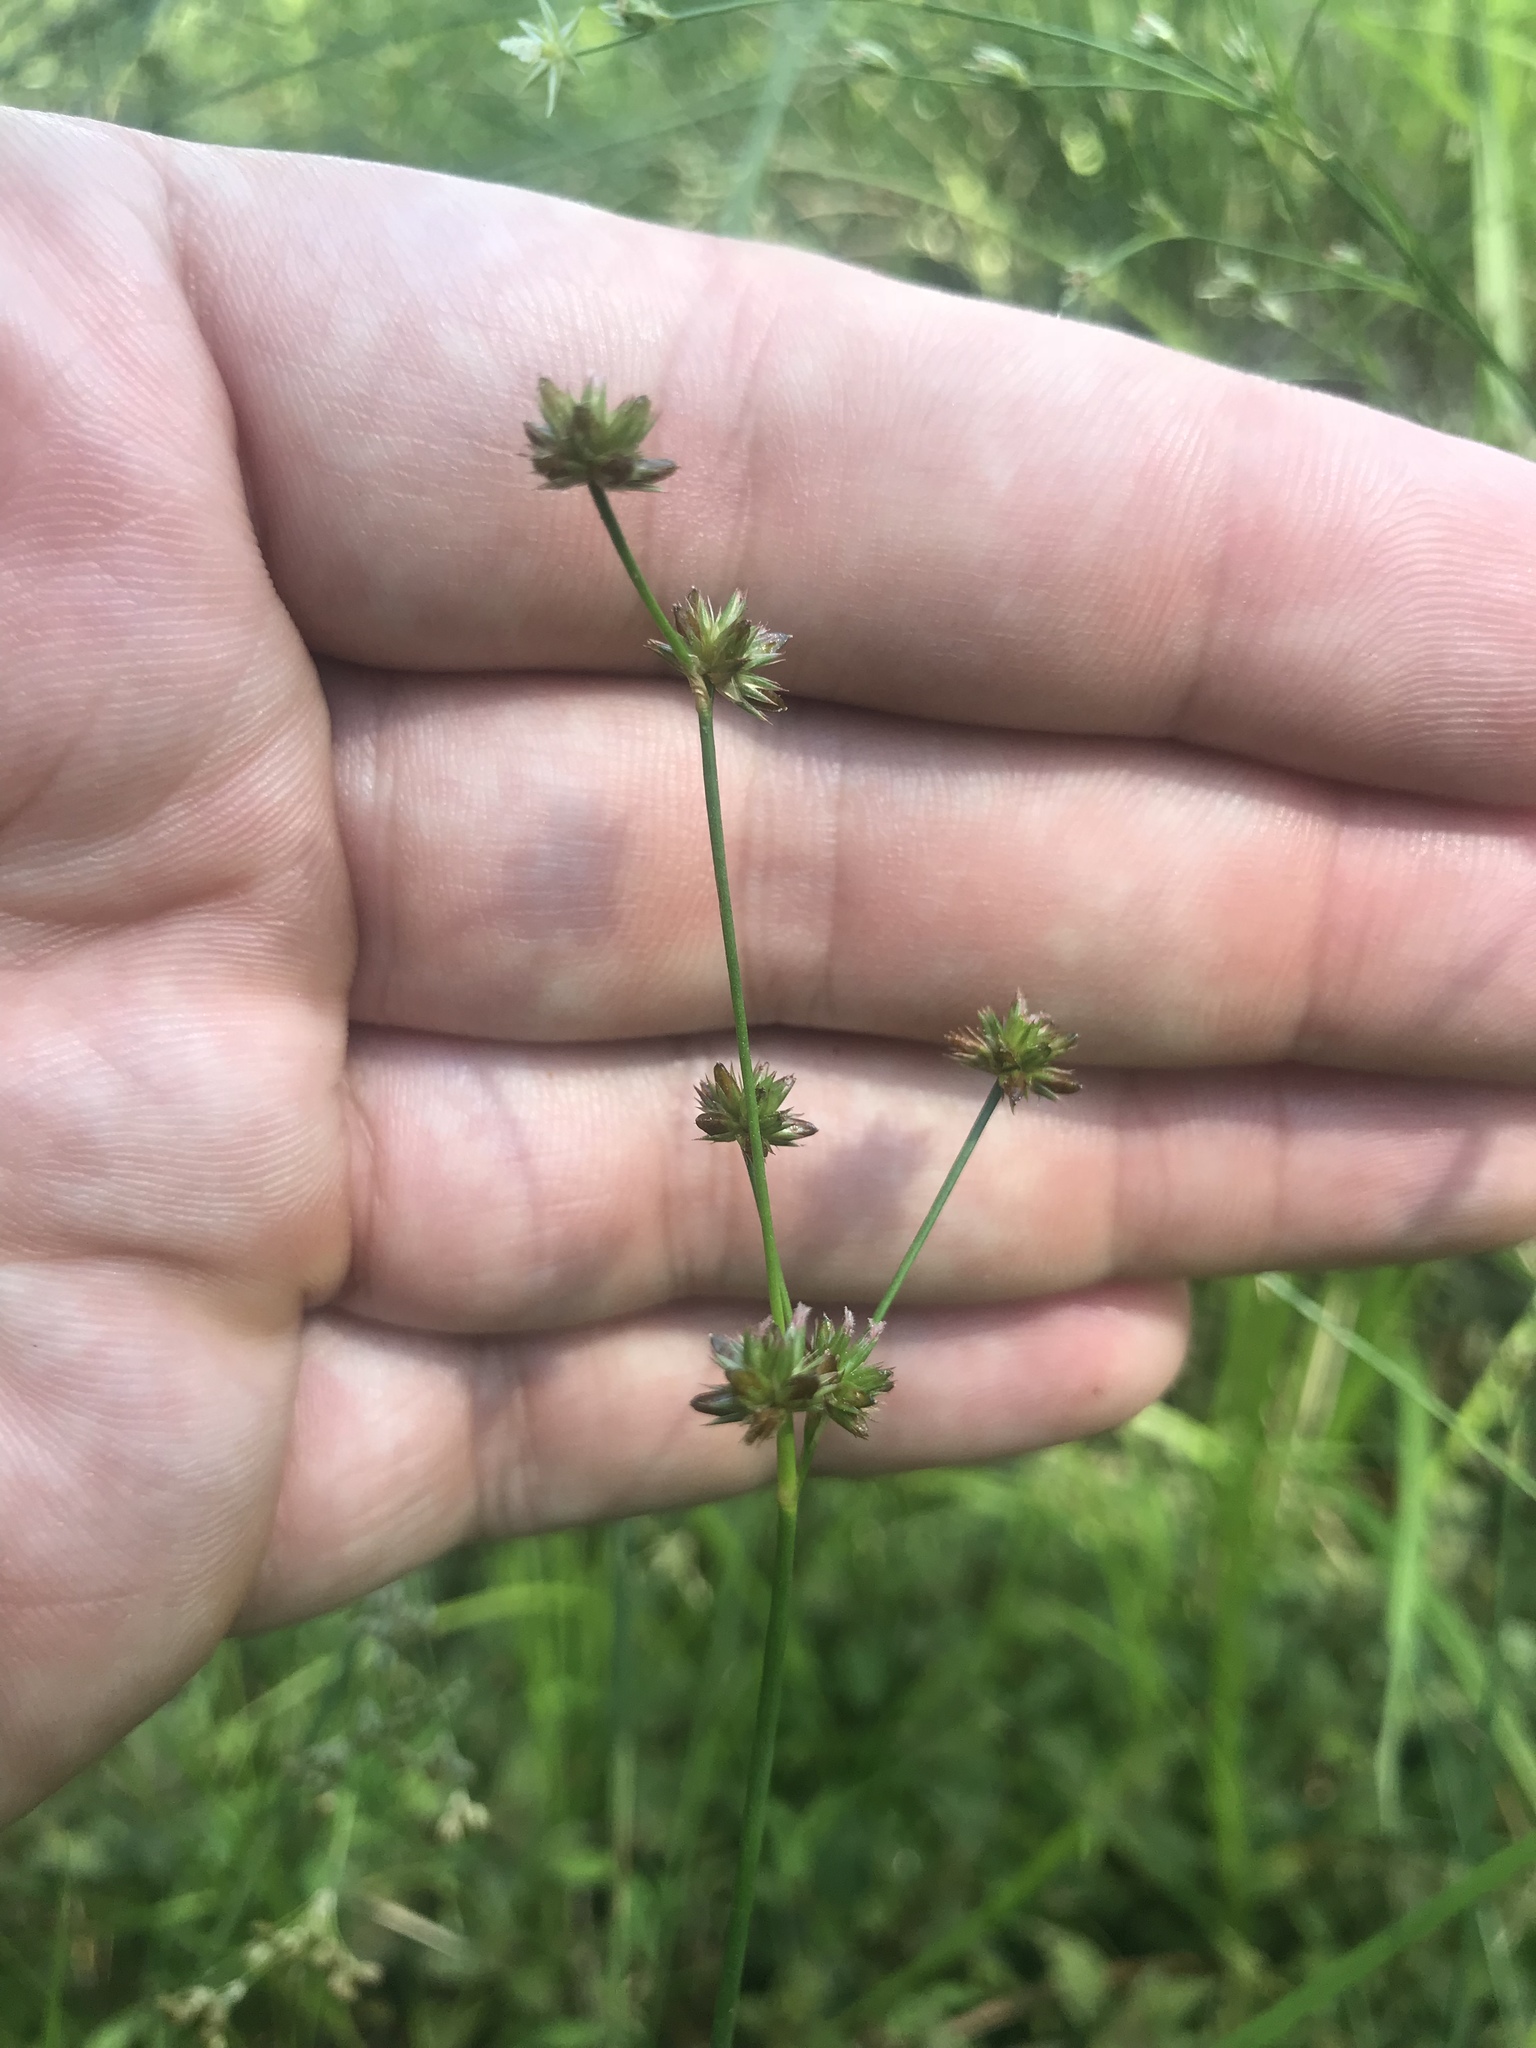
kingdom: Plantae
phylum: Tracheophyta
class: Liliopsida
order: Poales
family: Juncaceae
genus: Juncus
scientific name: Juncus subcaudatus
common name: Engelmann's rush
